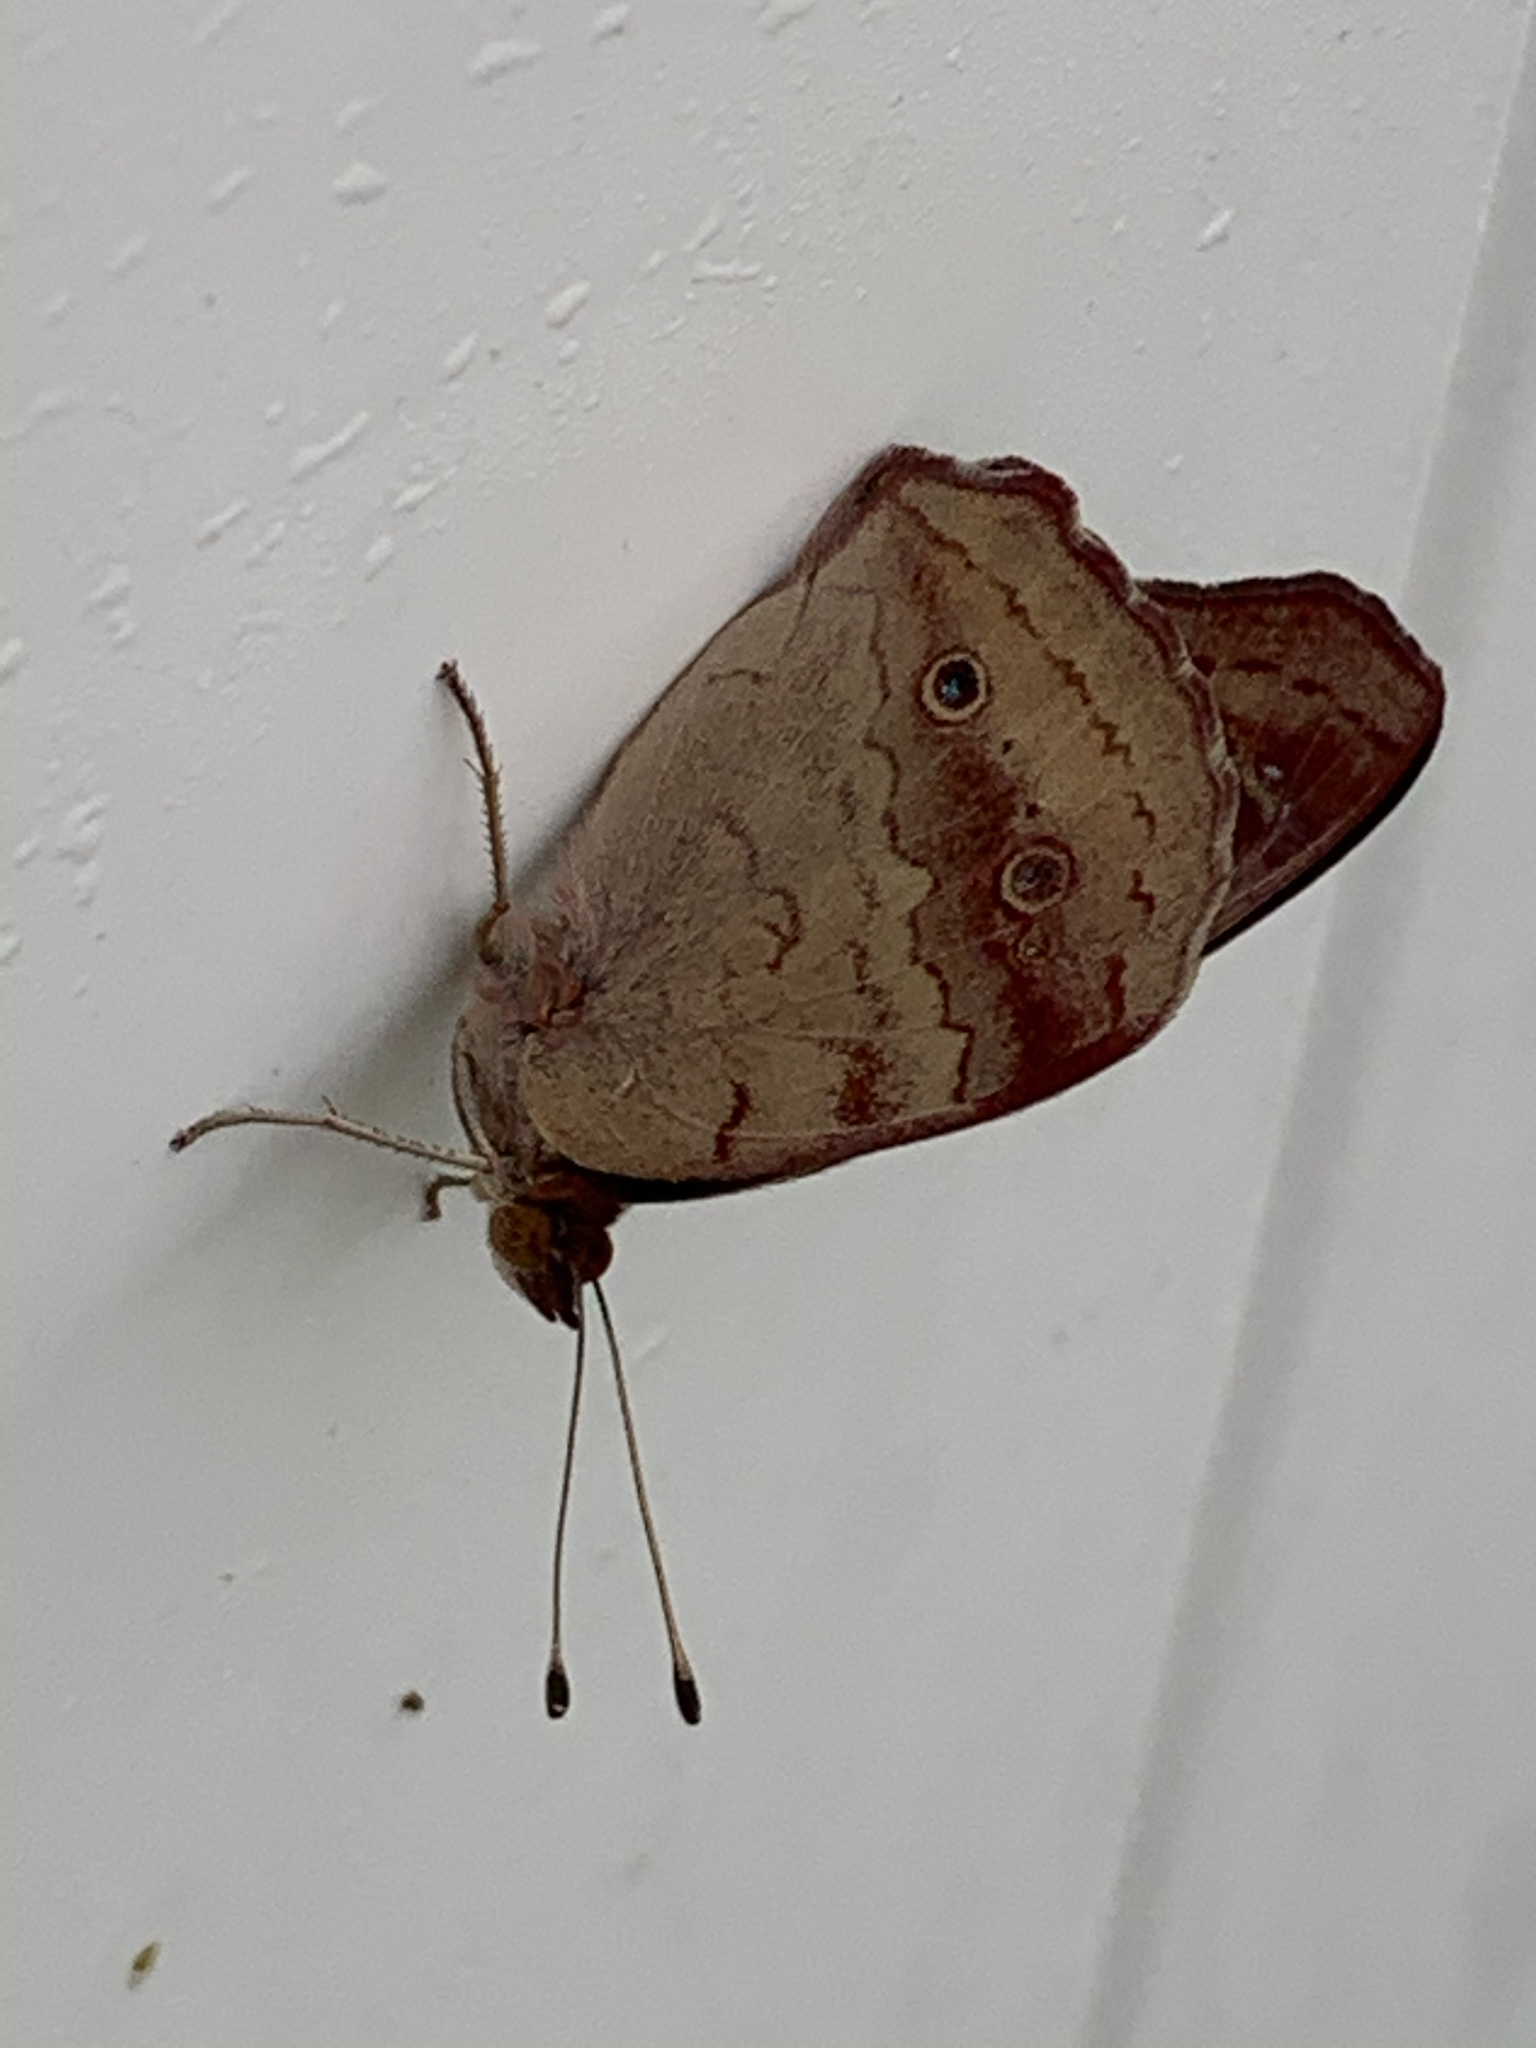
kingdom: Animalia
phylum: Arthropoda
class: Insecta
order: Lepidoptera
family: Nymphalidae
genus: Junonia
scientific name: Junonia coenia
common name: Common buckeye
